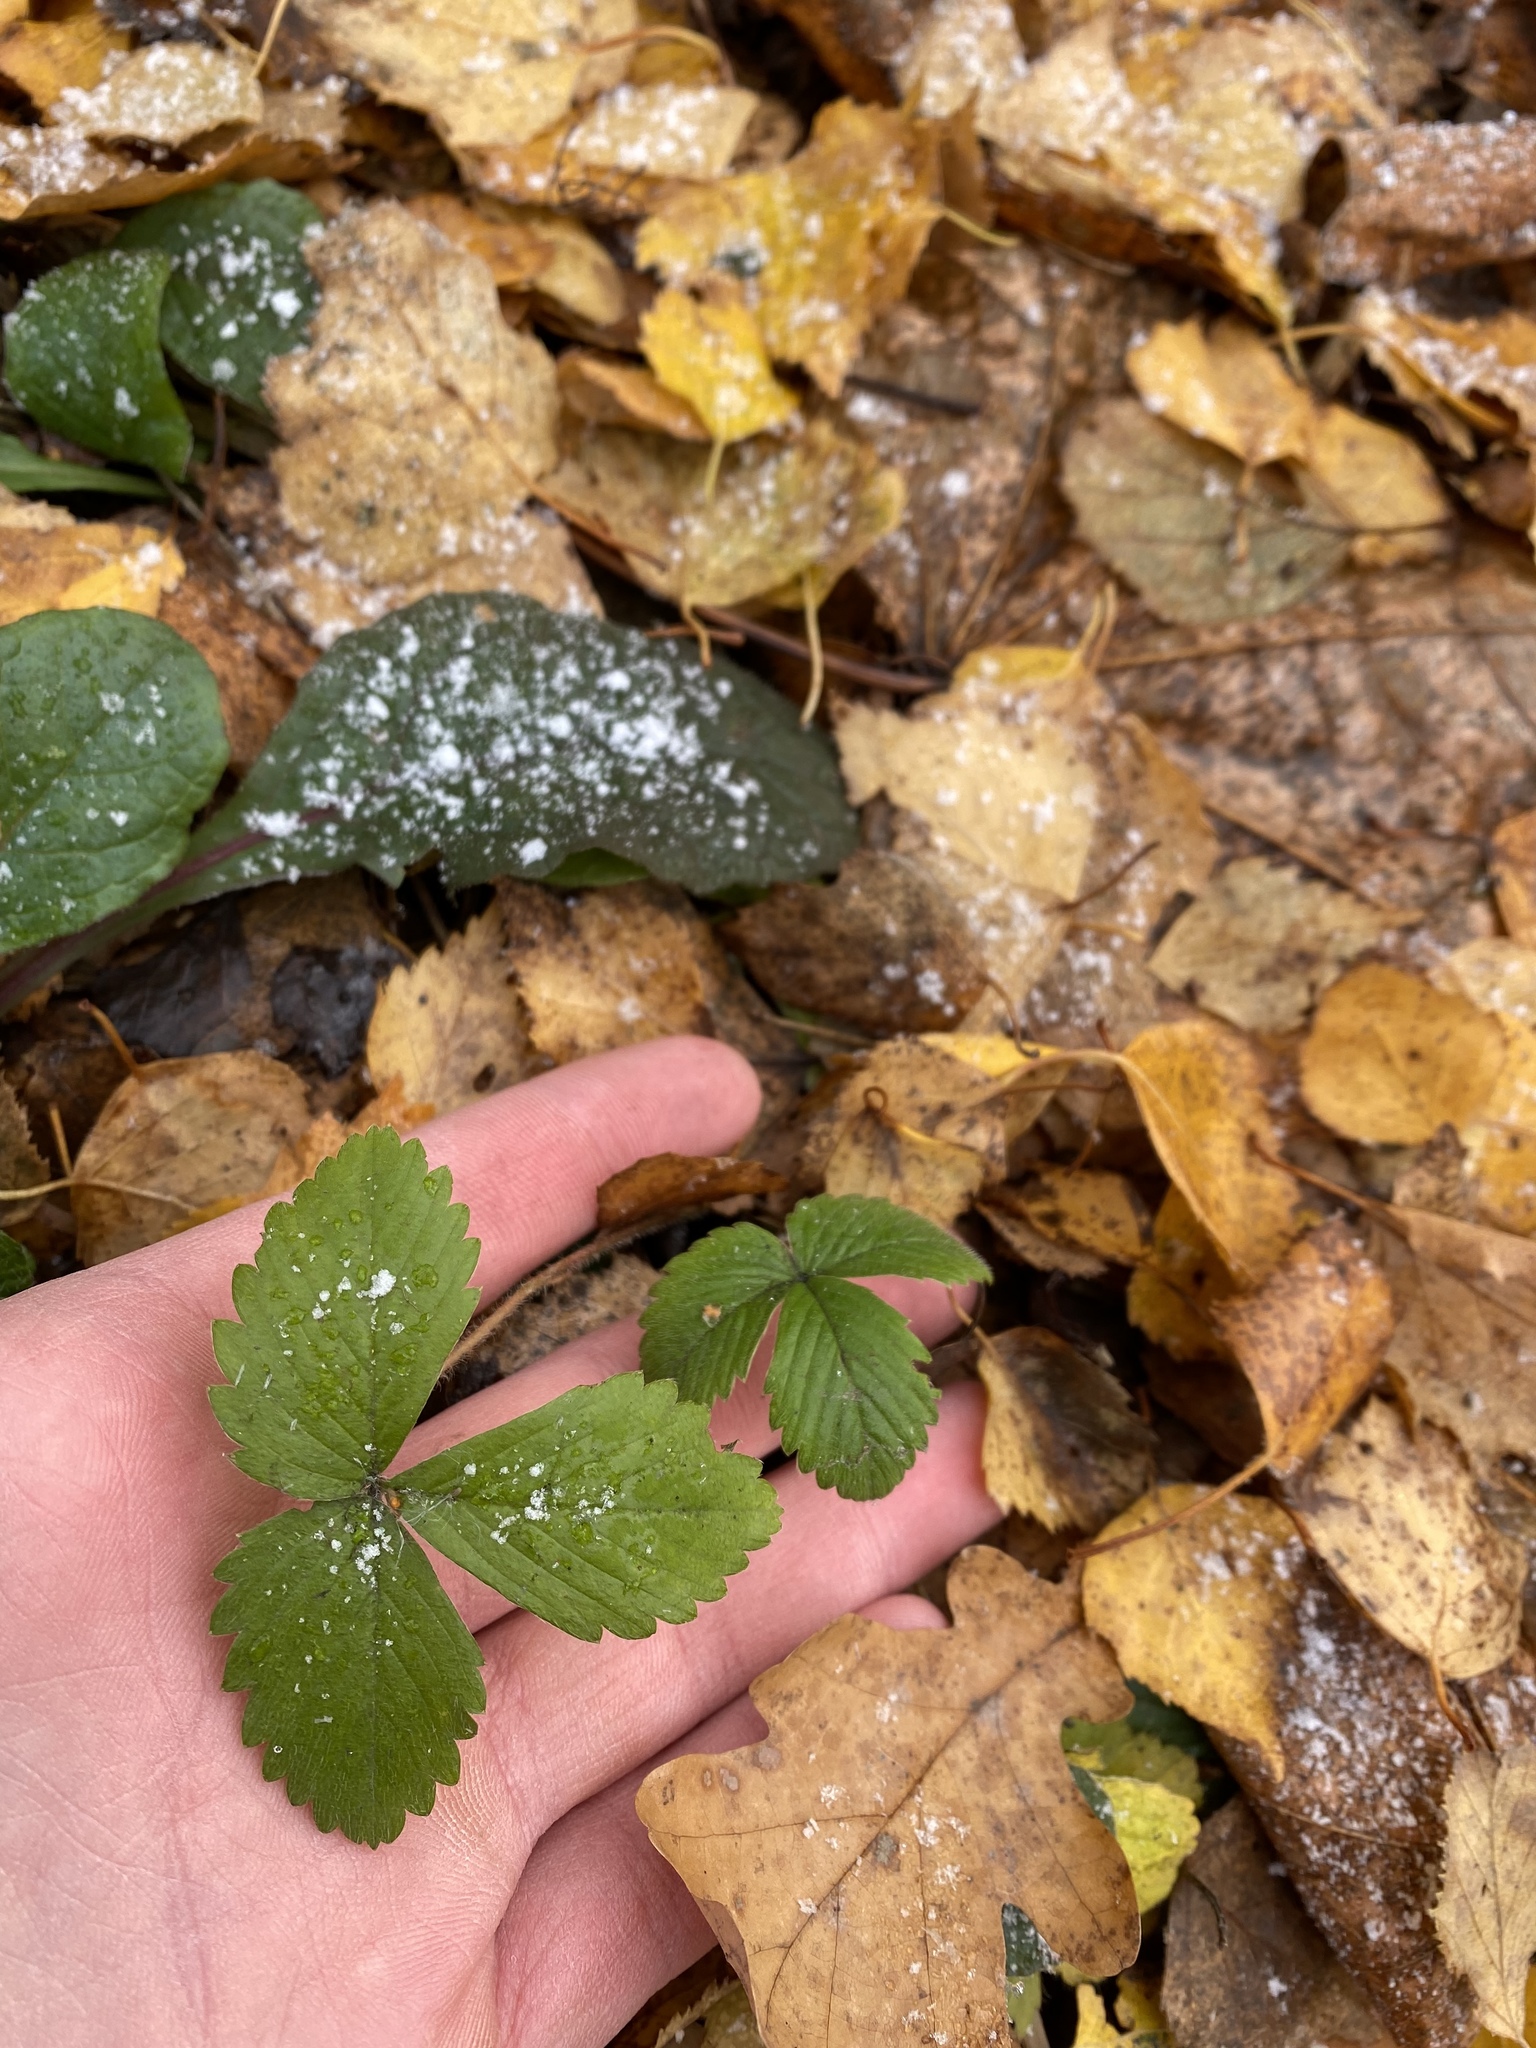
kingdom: Plantae
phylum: Tracheophyta
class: Magnoliopsida
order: Rosales
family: Rosaceae
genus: Fragaria
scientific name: Fragaria vesca
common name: Wild strawberry
